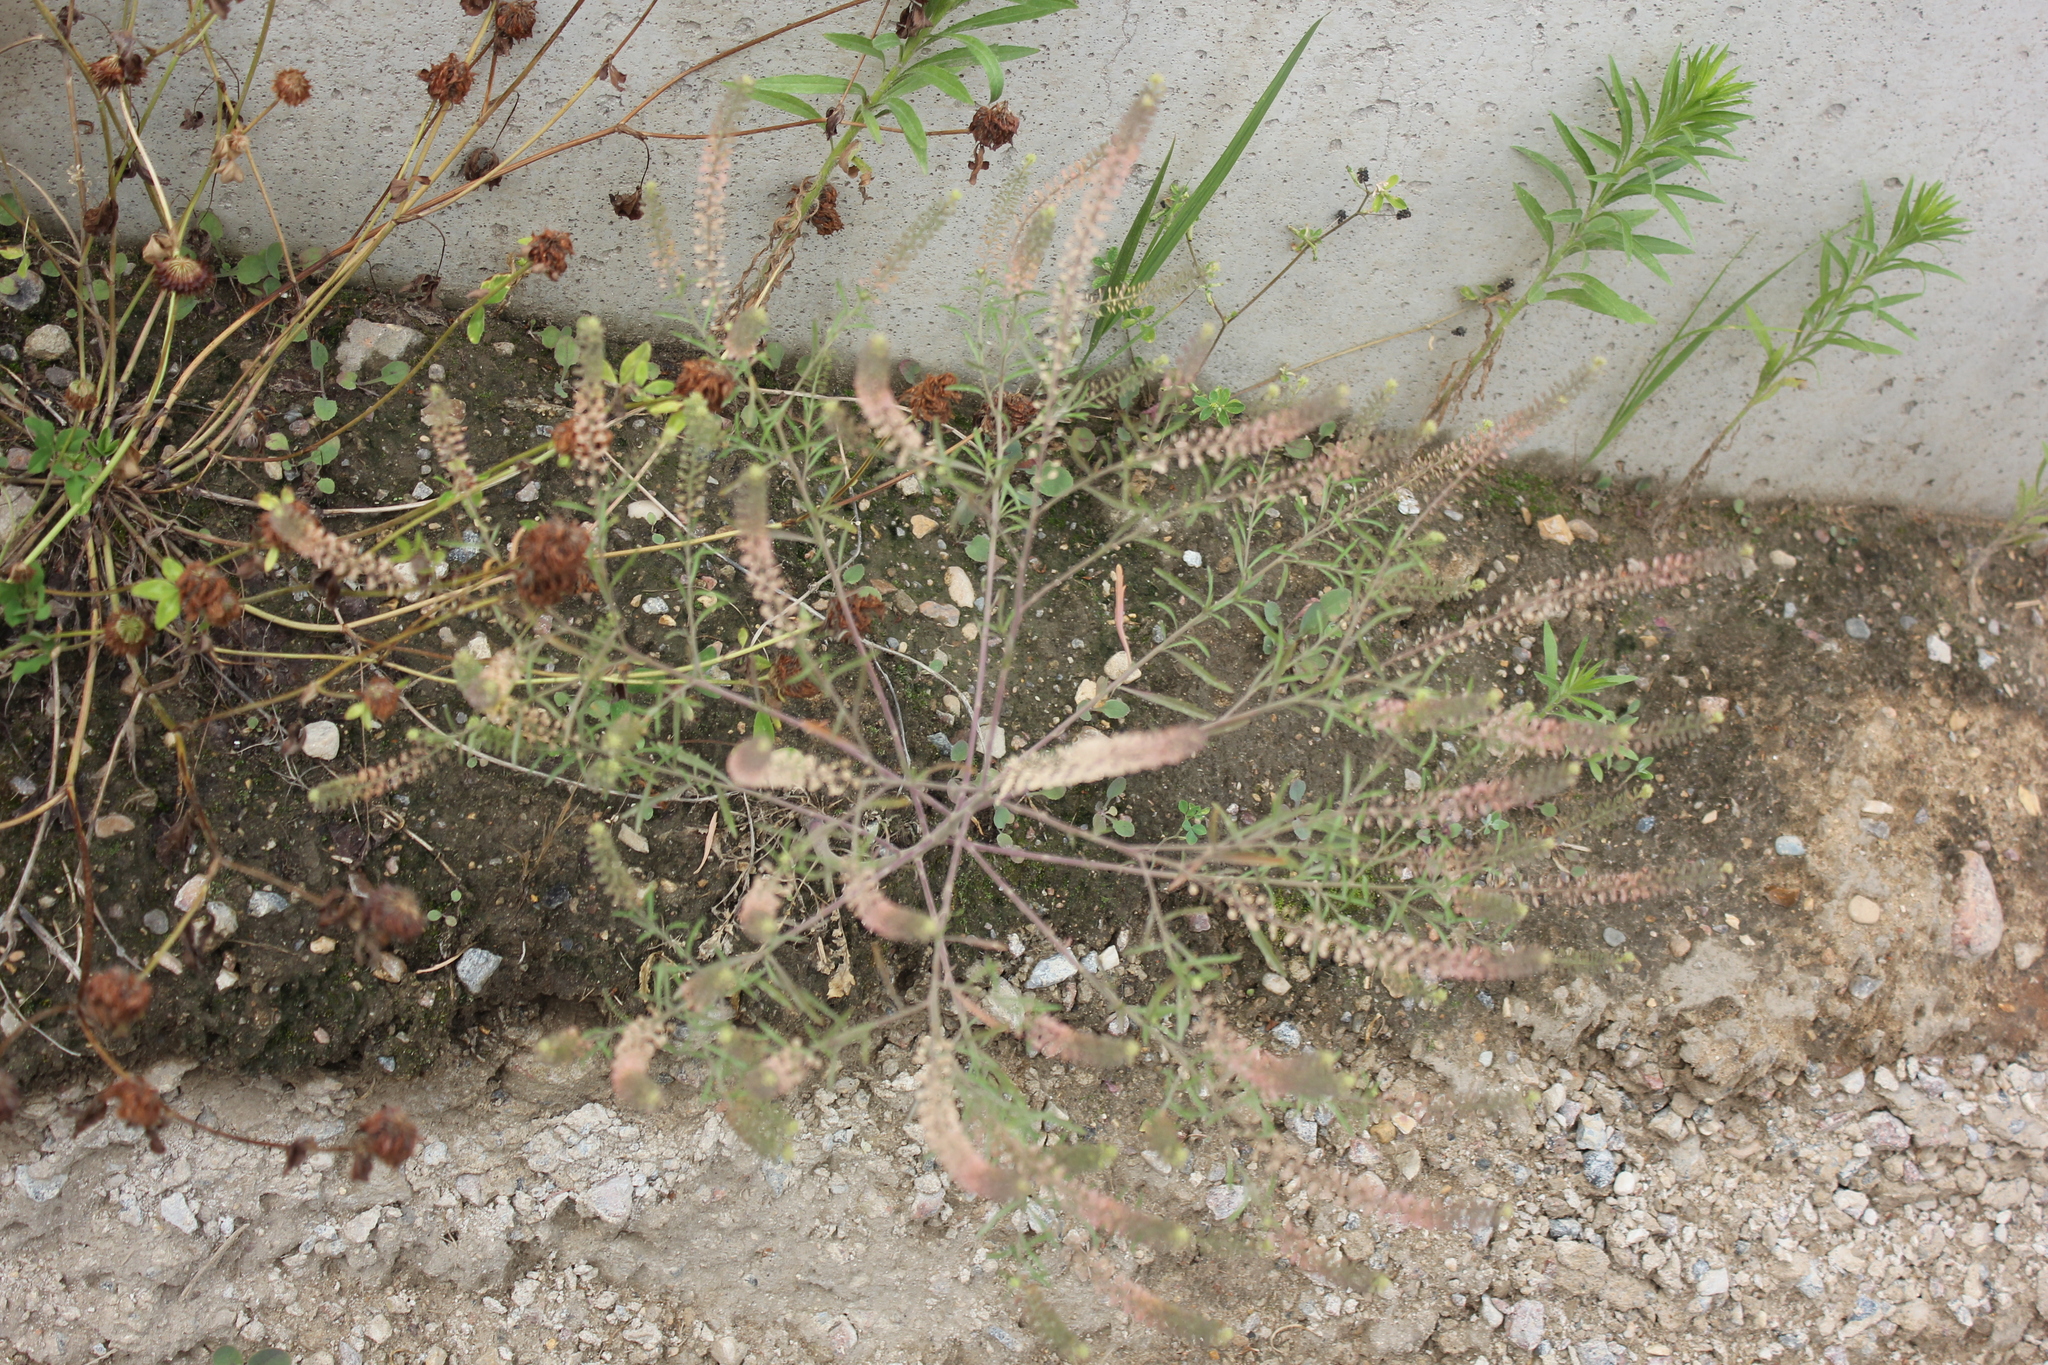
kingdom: Plantae
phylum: Tracheophyta
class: Magnoliopsida
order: Brassicales
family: Brassicaceae
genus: Lepidium
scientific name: Lepidium densiflorum
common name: Miner's pepperwort
